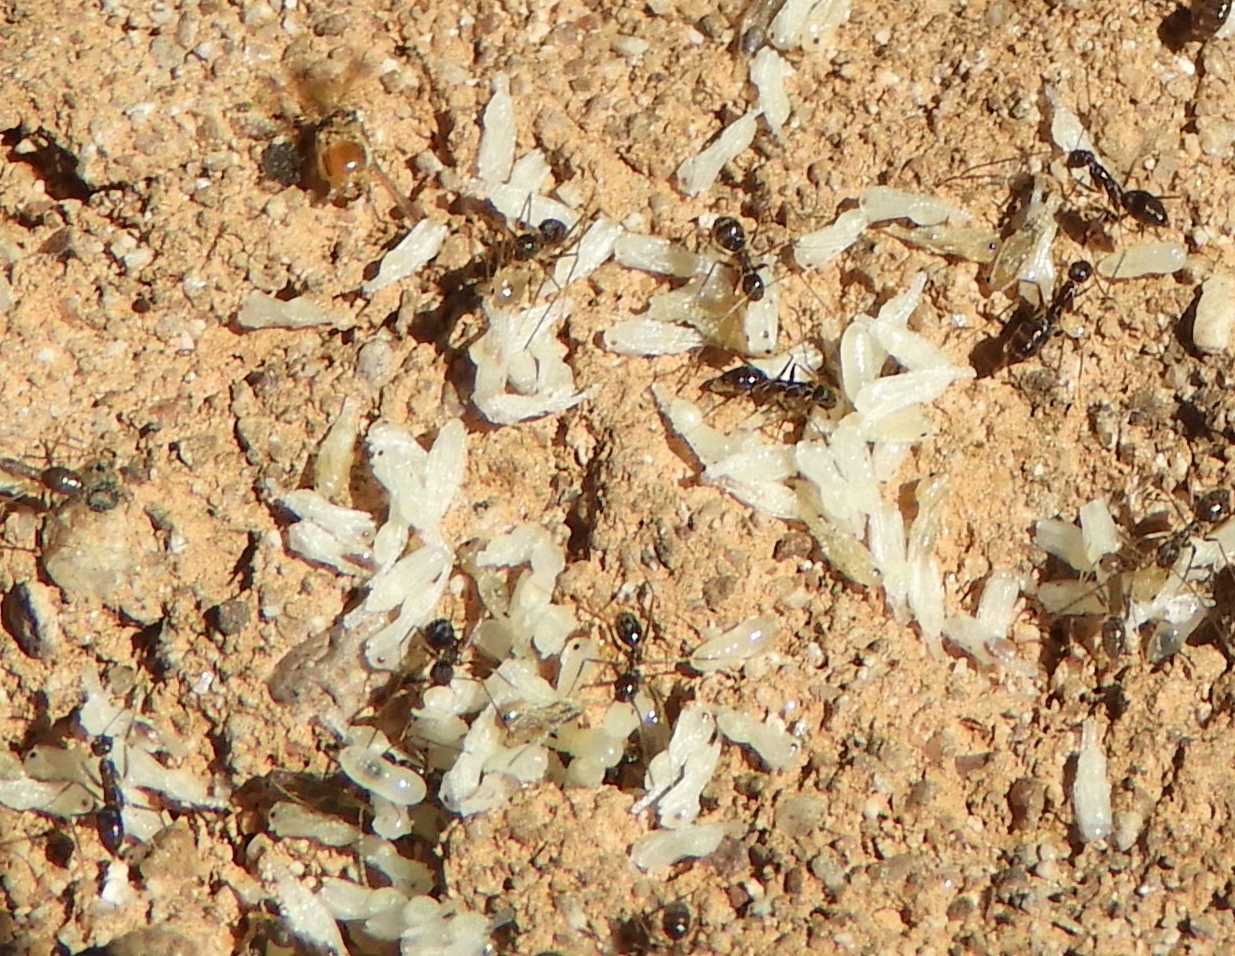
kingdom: Animalia
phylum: Arthropoda
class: Insecta
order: Hymenoptera
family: Formicidae
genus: Paratrechina
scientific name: Paratrechina longicornis
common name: Longhorned crazy ant
